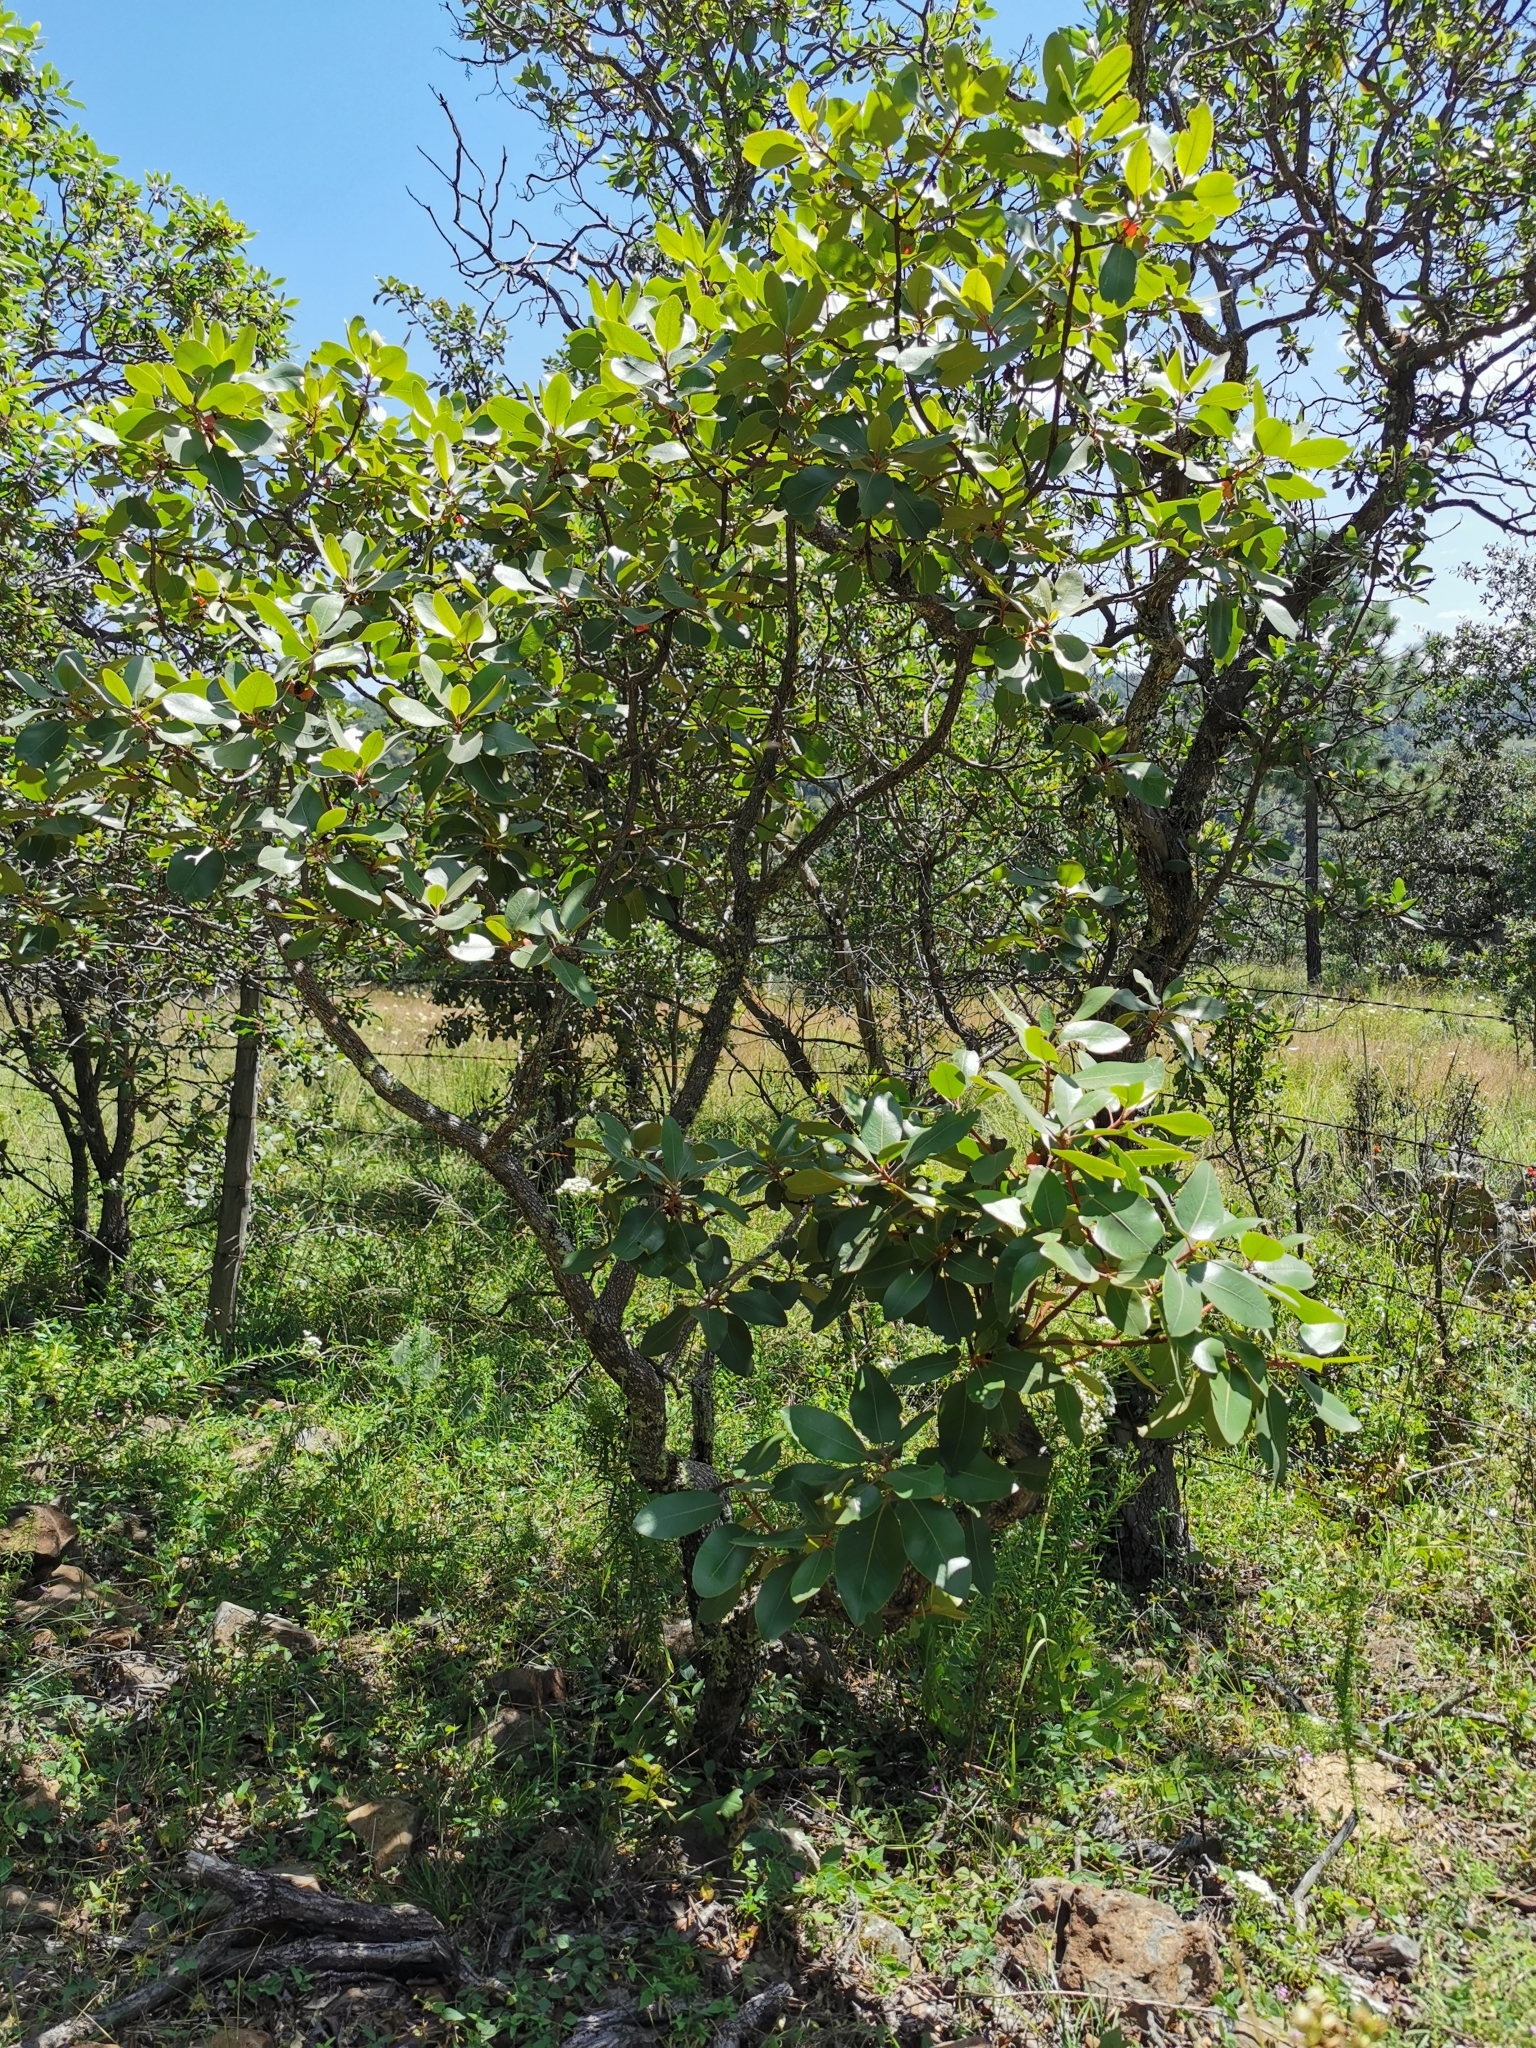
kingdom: Plantae
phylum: Tracheophyta
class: Magnoliopsida
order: Ericales
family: Ericaceae
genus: Arbutus
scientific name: Arbutus madrensis
